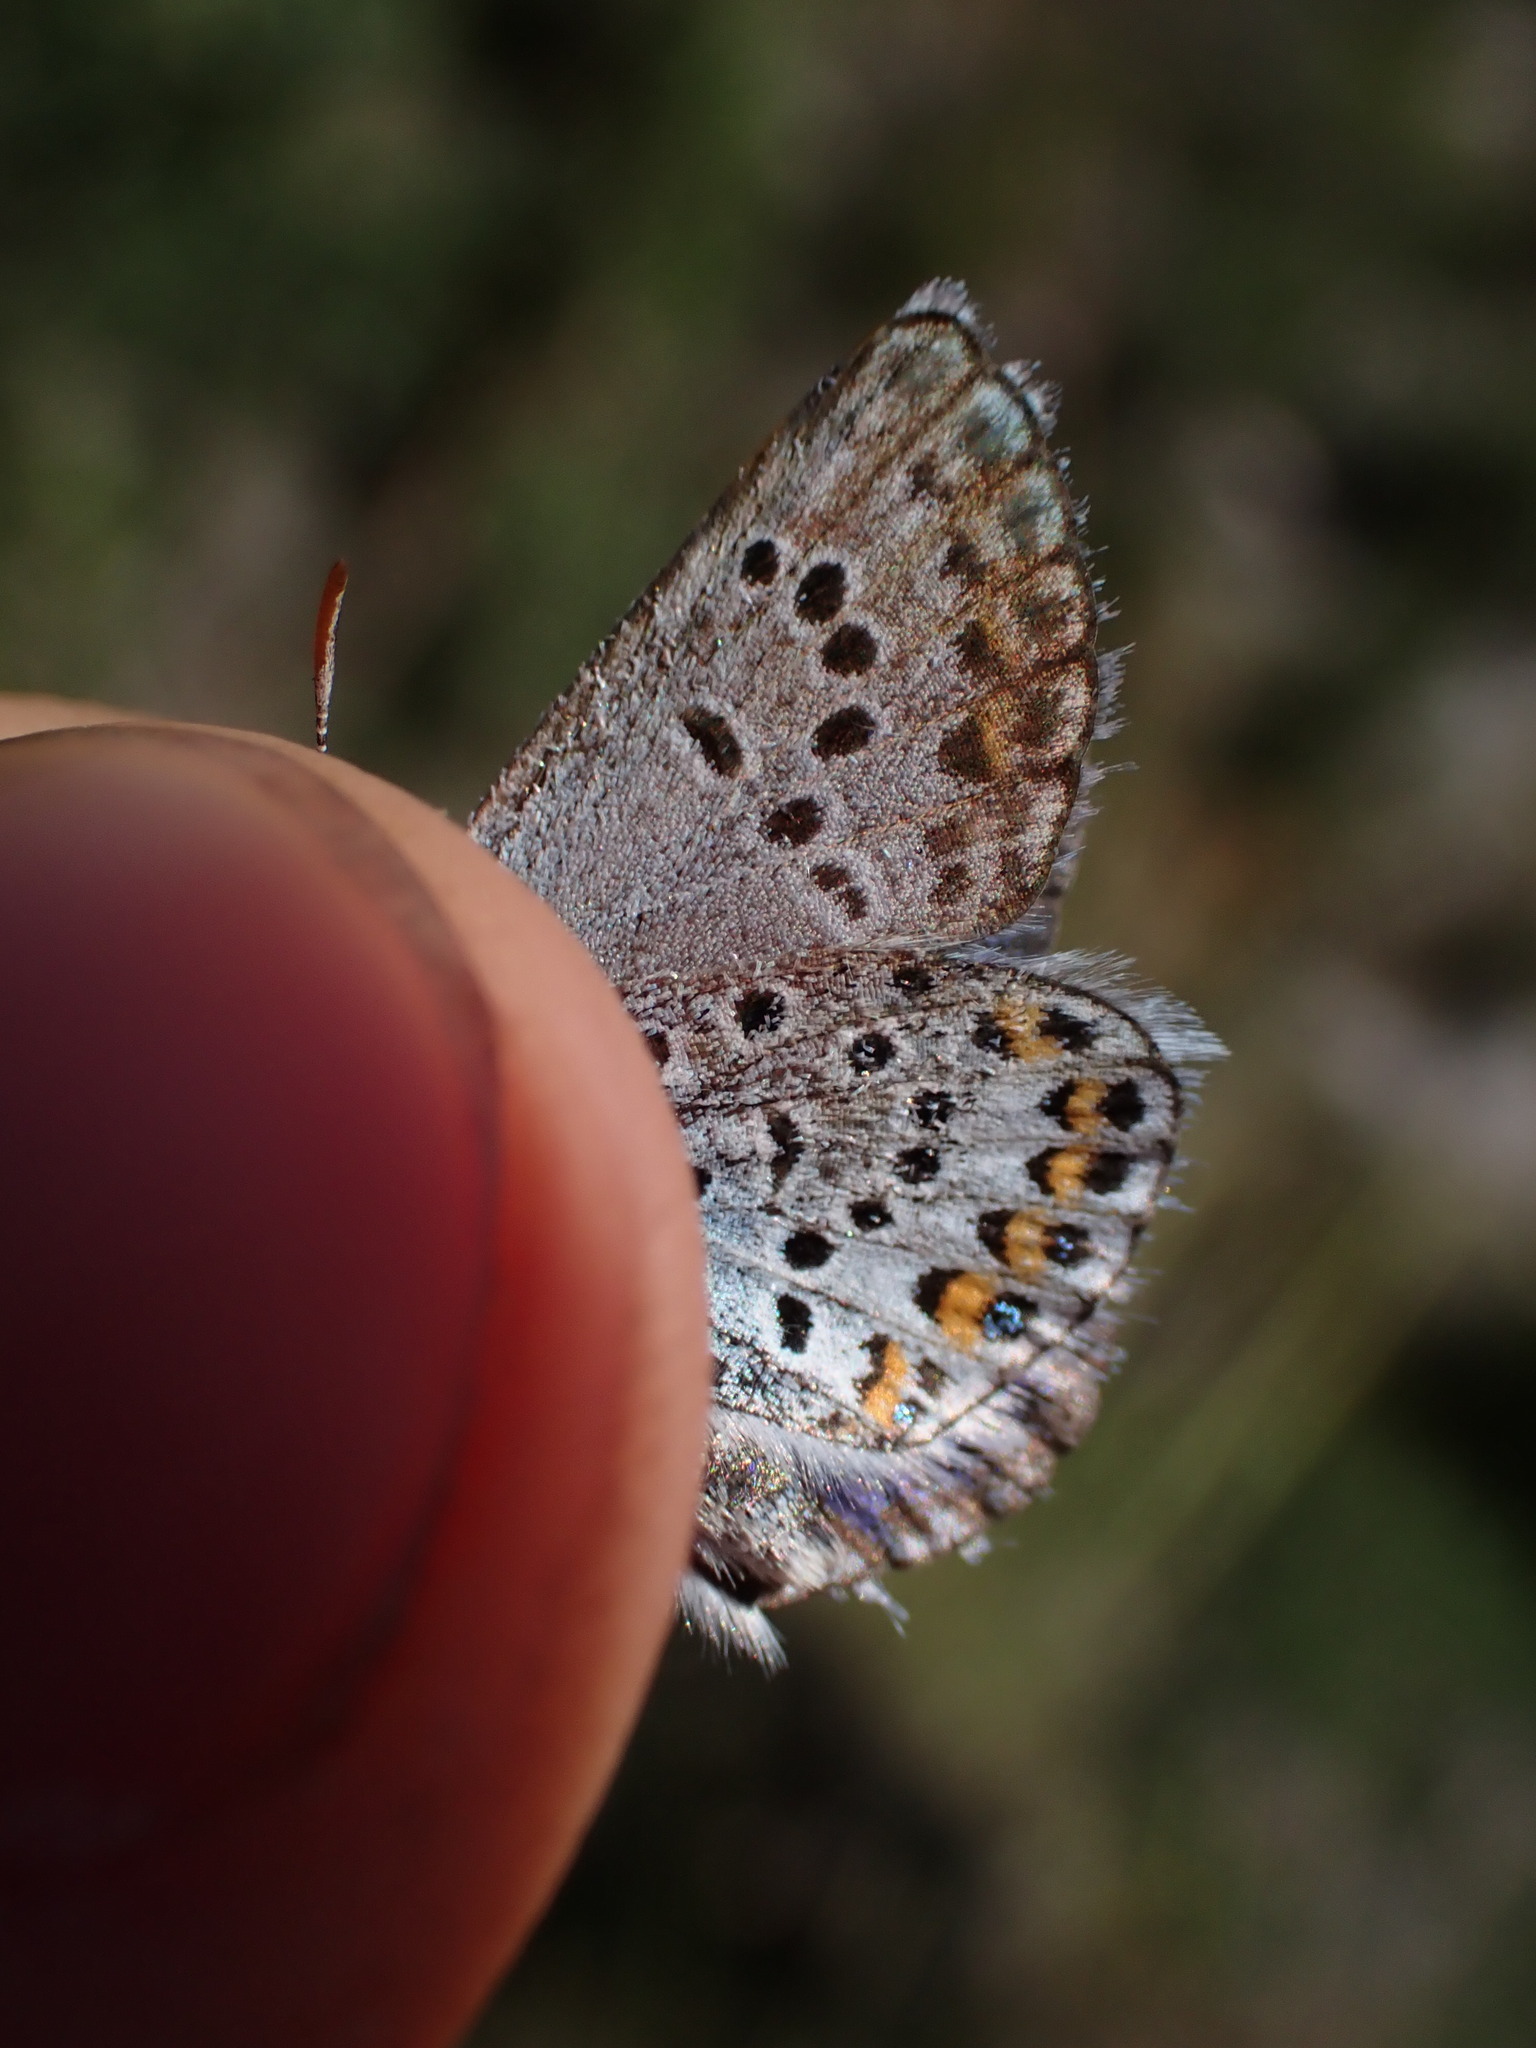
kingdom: Animalia
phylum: Arthropoda
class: Insecta
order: Lepidoptera
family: Lycaenidae
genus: Plebejus
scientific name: Plebejus argus
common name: Silver-studded blue
